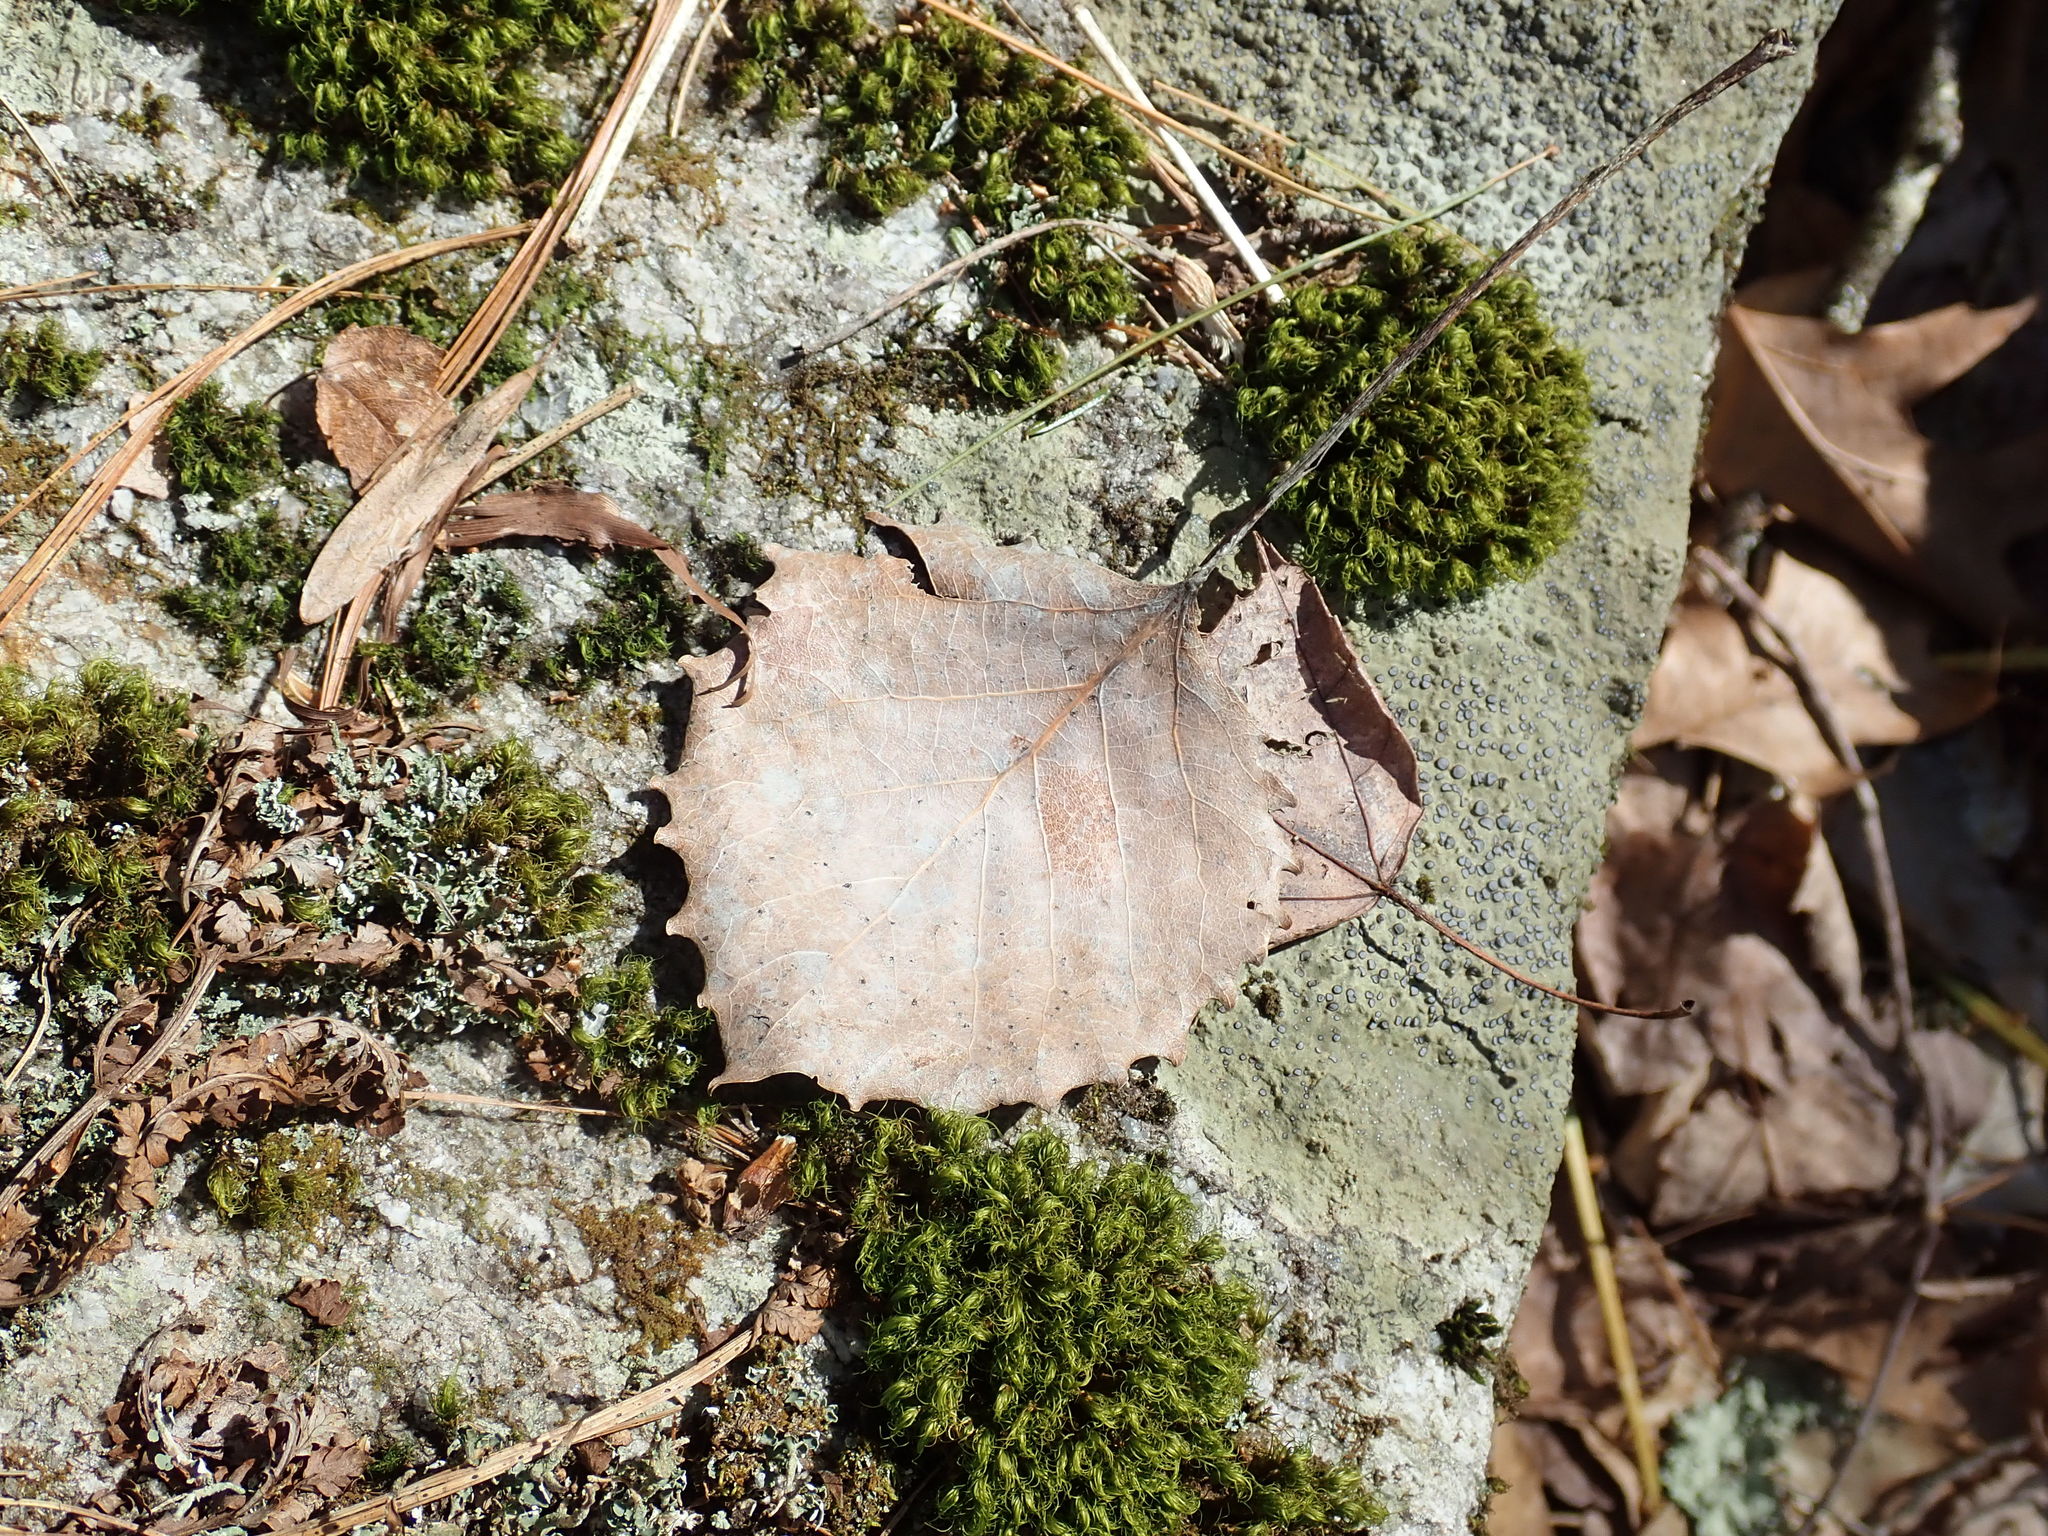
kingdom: Plantae
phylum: Tracheophyta
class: Magnoliopsida
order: Malpighiales
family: Salicaceae
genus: Populus
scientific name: Populus grandidentata
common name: Bigtooth aspen
